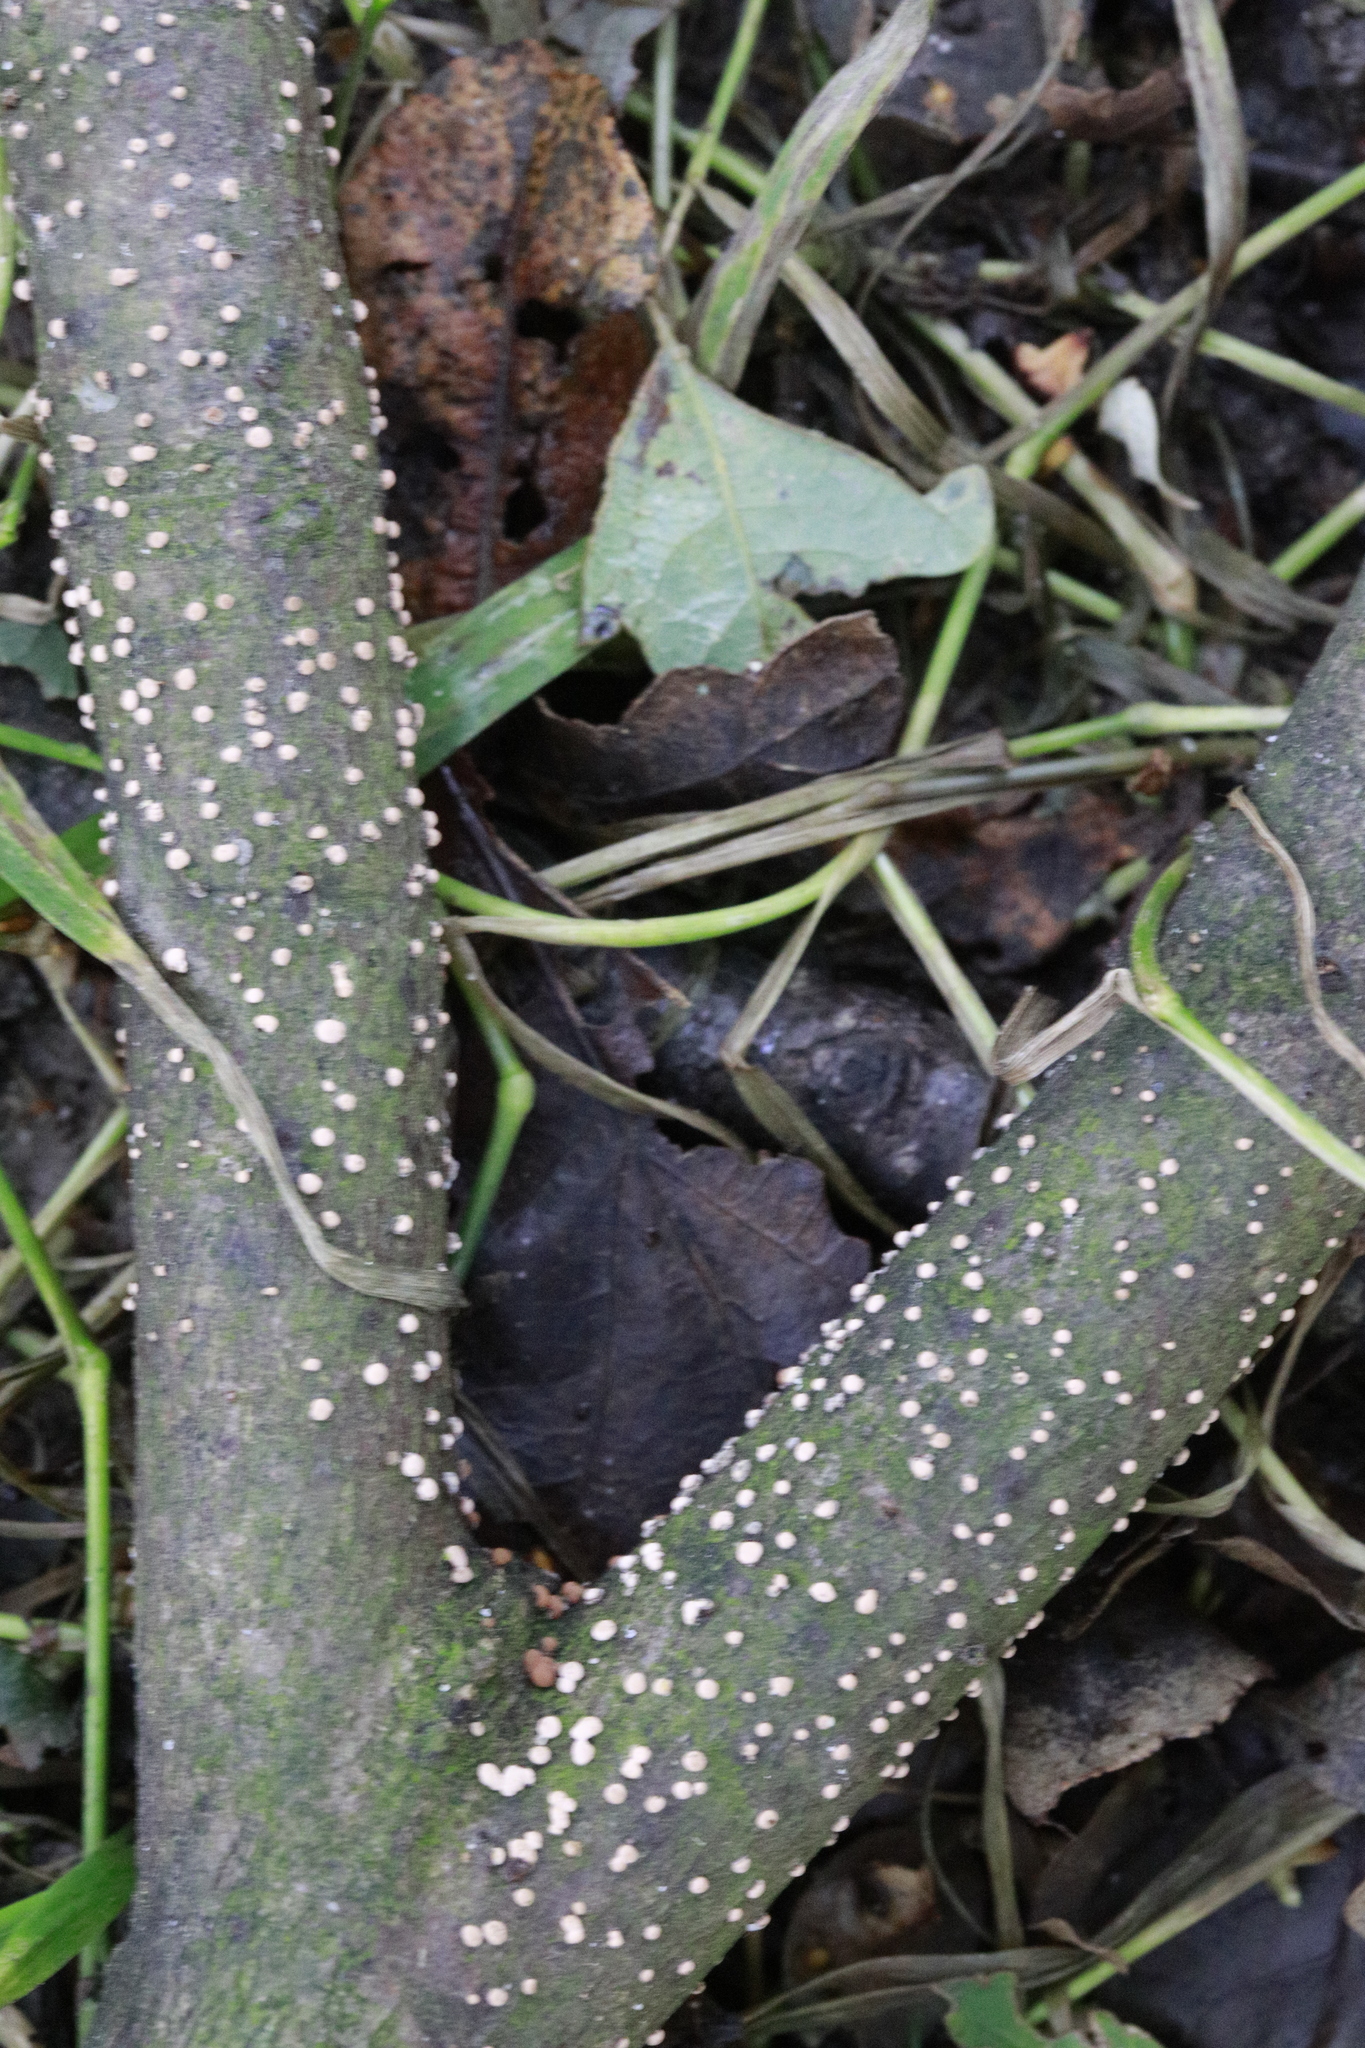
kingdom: Fungi
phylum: Ascomycota
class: Sordariomycetes
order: Hypocreales
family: Nectriaceae
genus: Nectria
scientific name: Nectria cinnabarina
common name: Coral spot
